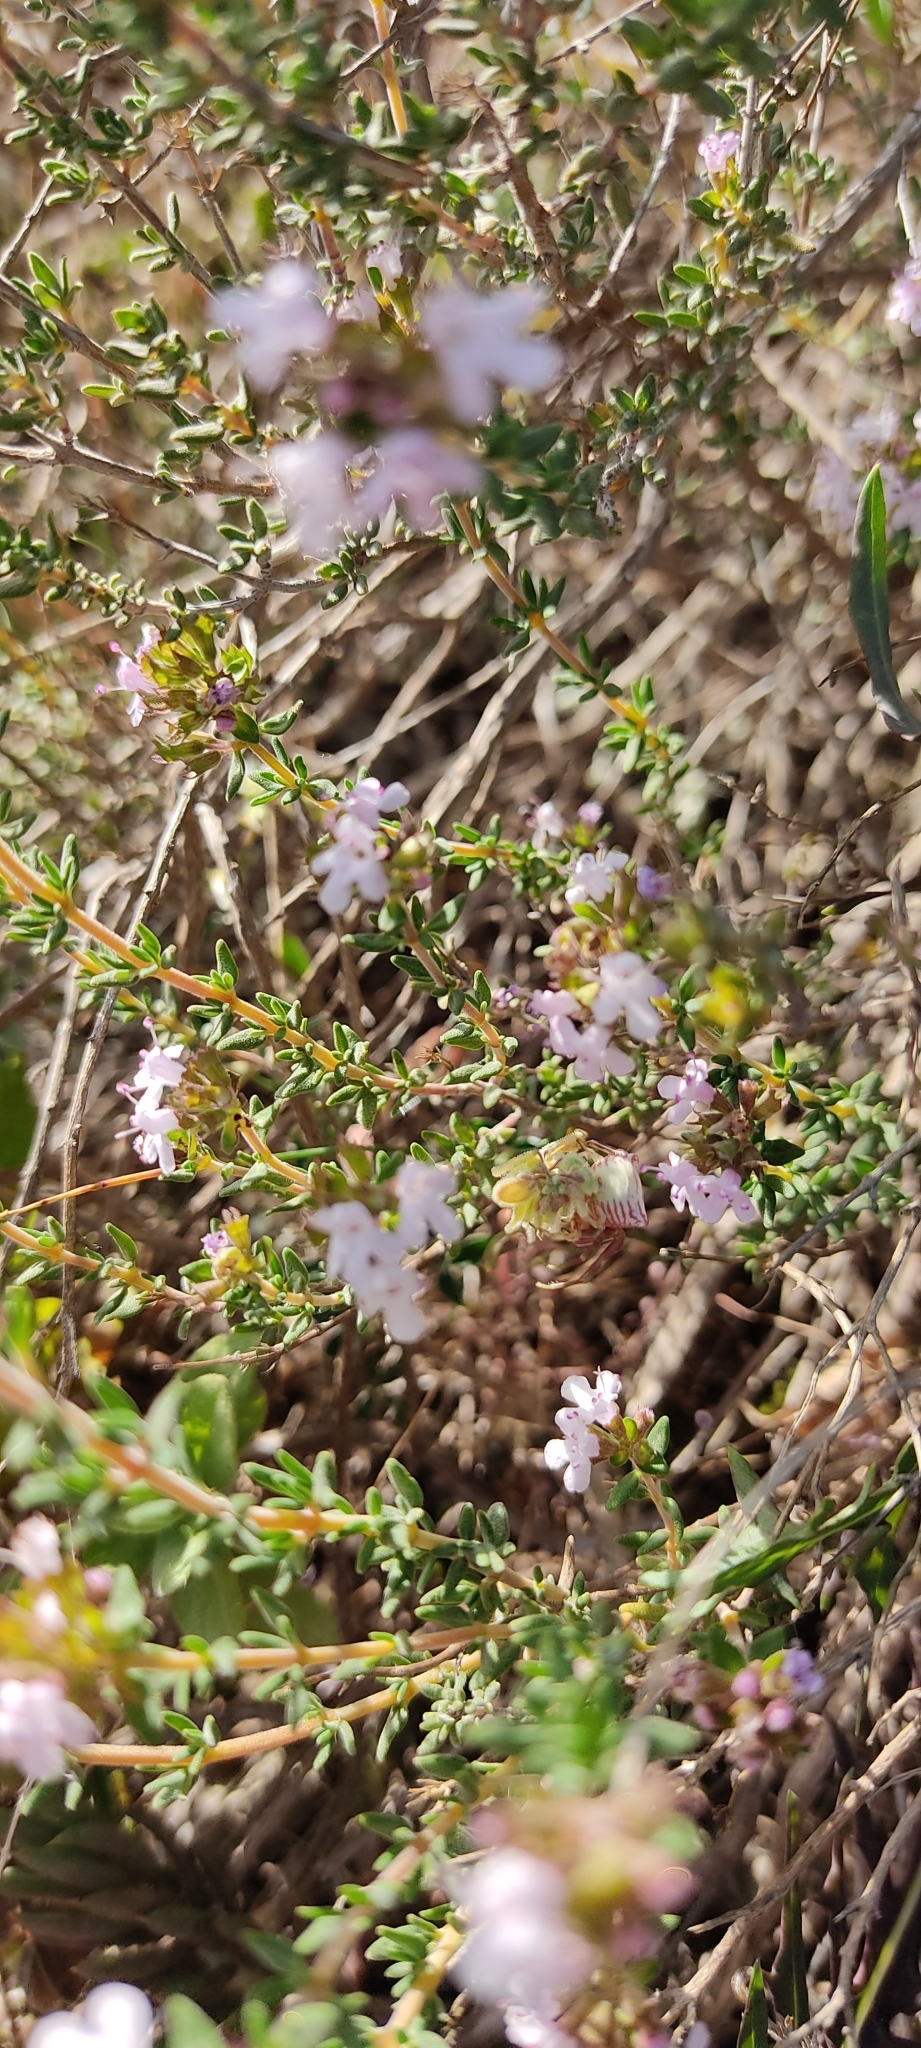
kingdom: Plantae
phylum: Tracheophyta
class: Magnoliopsida
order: Lamiales
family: Lamiaceae
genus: Thymus
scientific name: Thymus vulgaris
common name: Garden thyme
